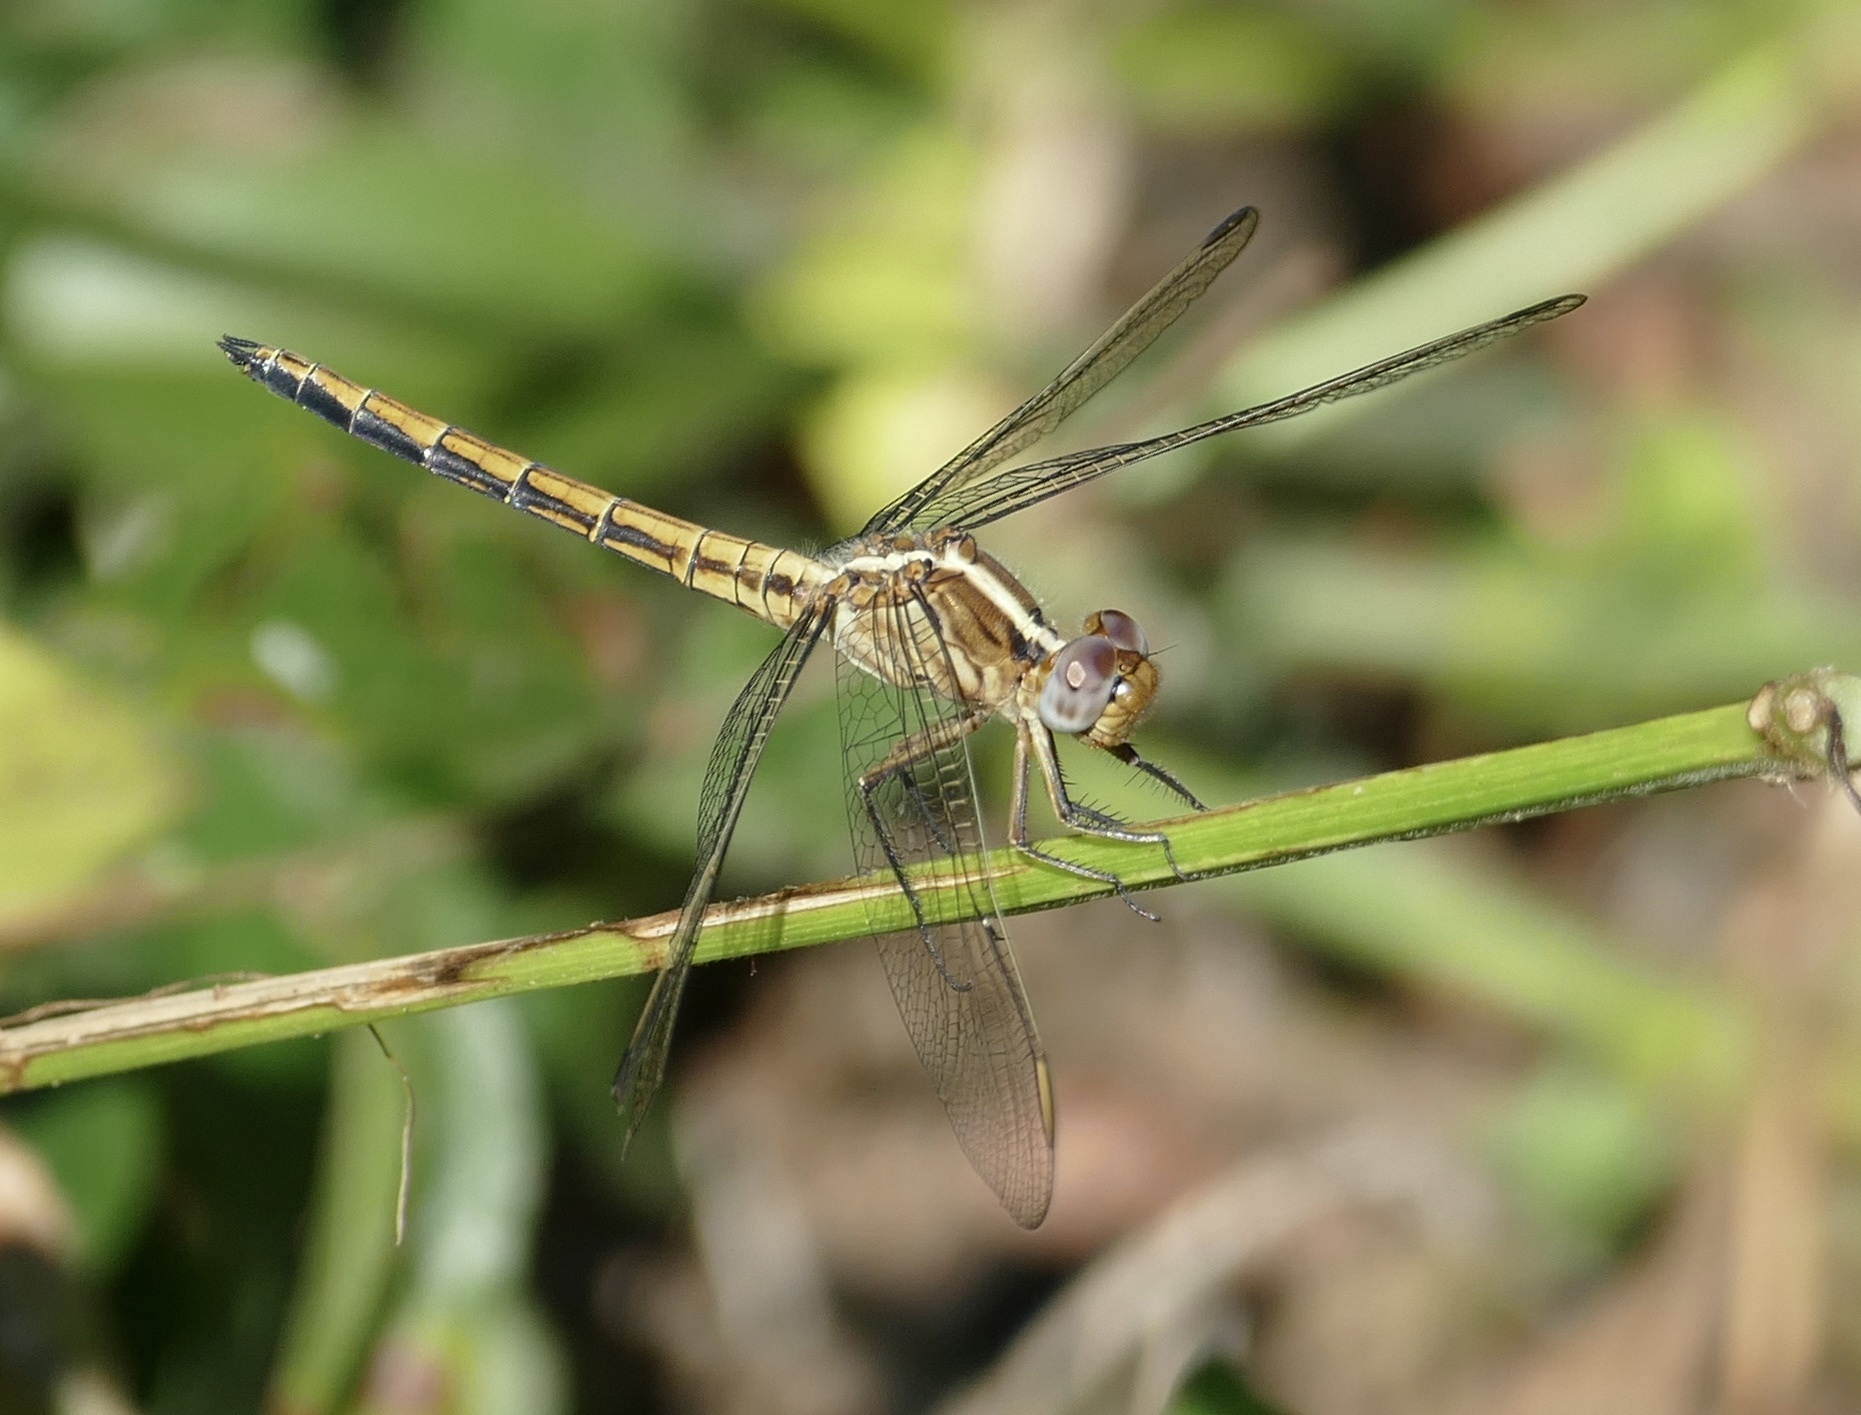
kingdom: Animalia
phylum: Arthropoda
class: Insecta
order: Odonata
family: Libellulidae
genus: Nesciothemis
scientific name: Nesciothemis farinosa
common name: Eastern blacktail
